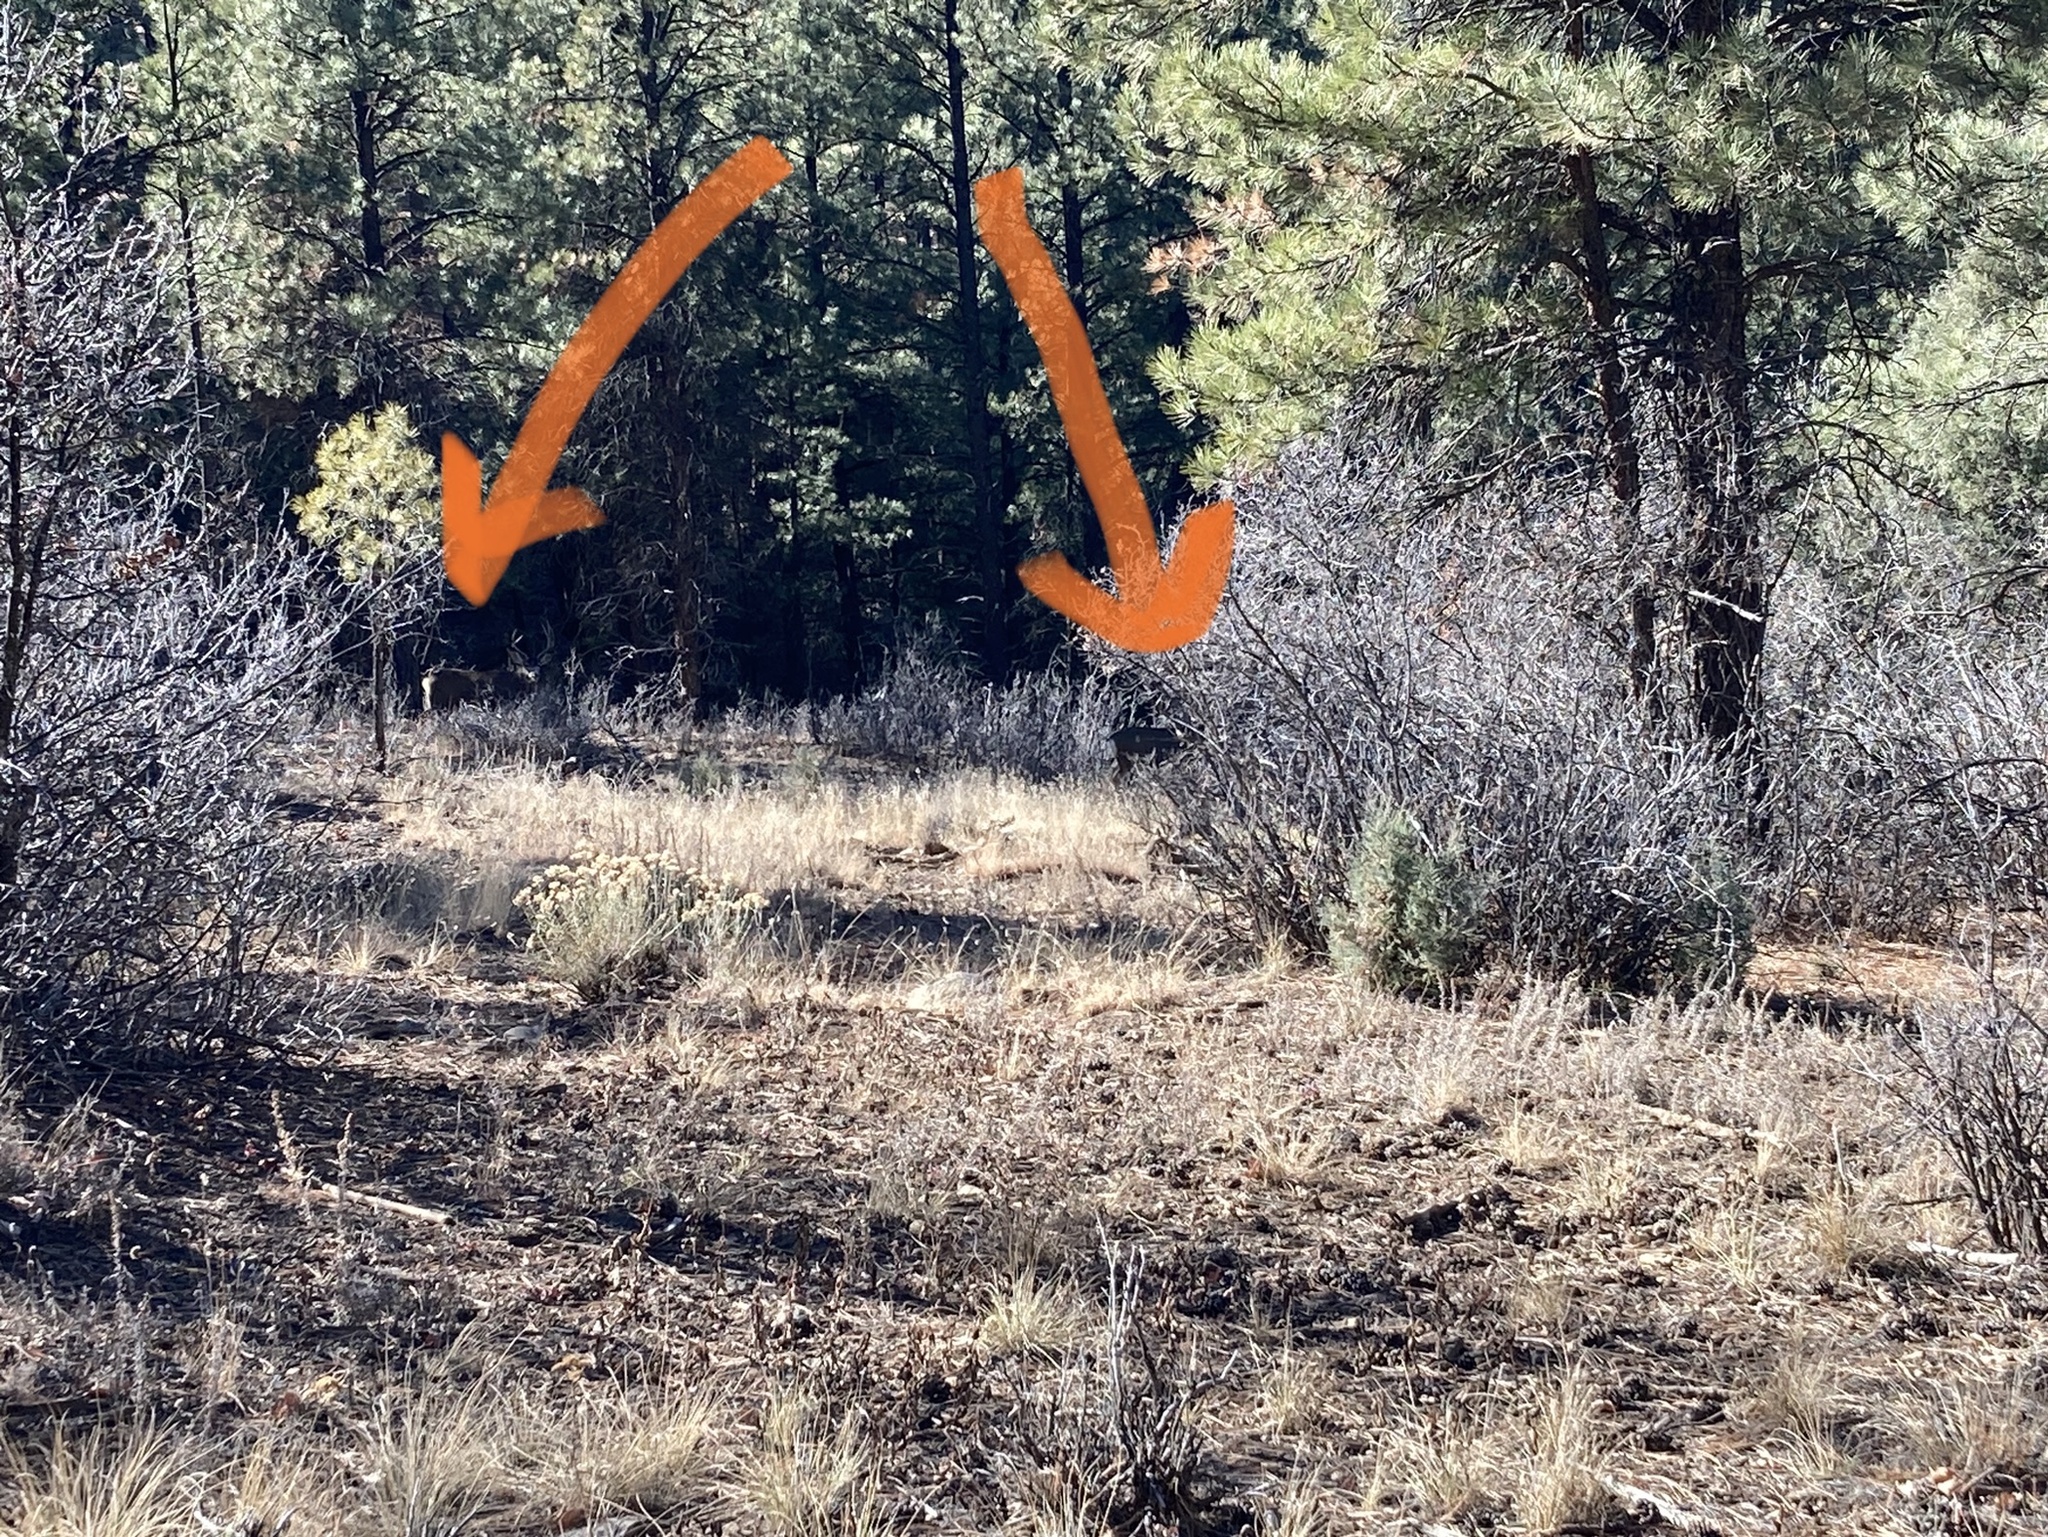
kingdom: Animalia
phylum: Chordata
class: Mammalia
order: Artiodactyla
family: Cervidae
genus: Odocoileus
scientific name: Odocoileus hemionus
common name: Mule deer
